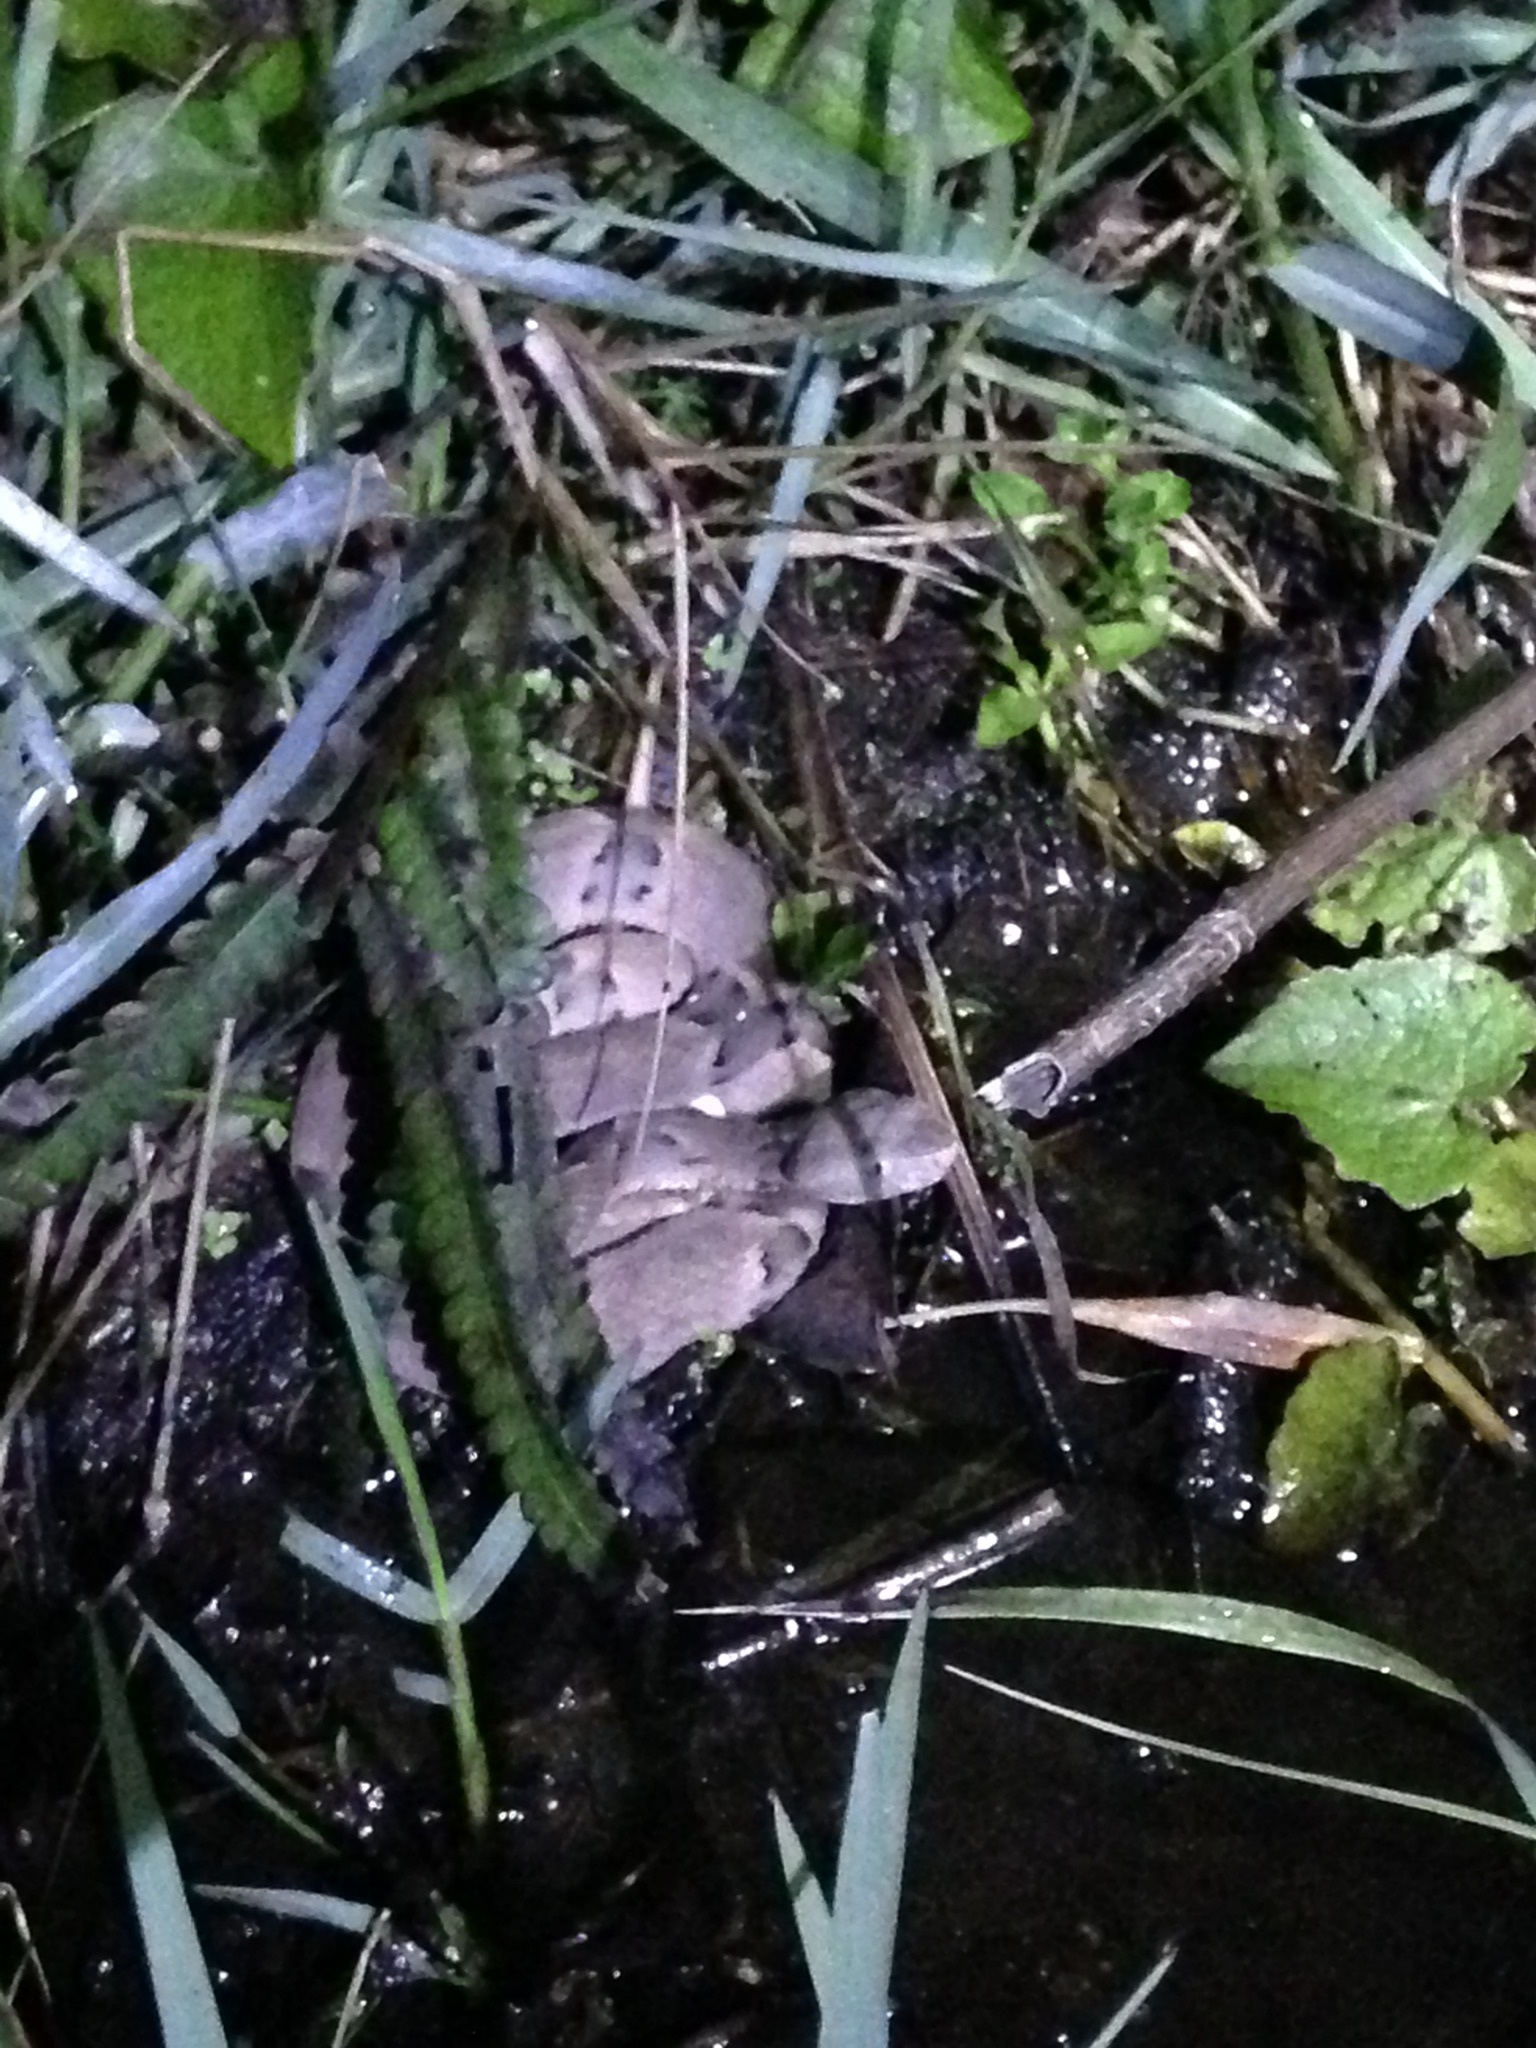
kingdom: Animalia
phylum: Chordata
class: Squamata
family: Viperidae
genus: Bothrops
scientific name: Bothrops moojeni
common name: Brazilian lancehead
